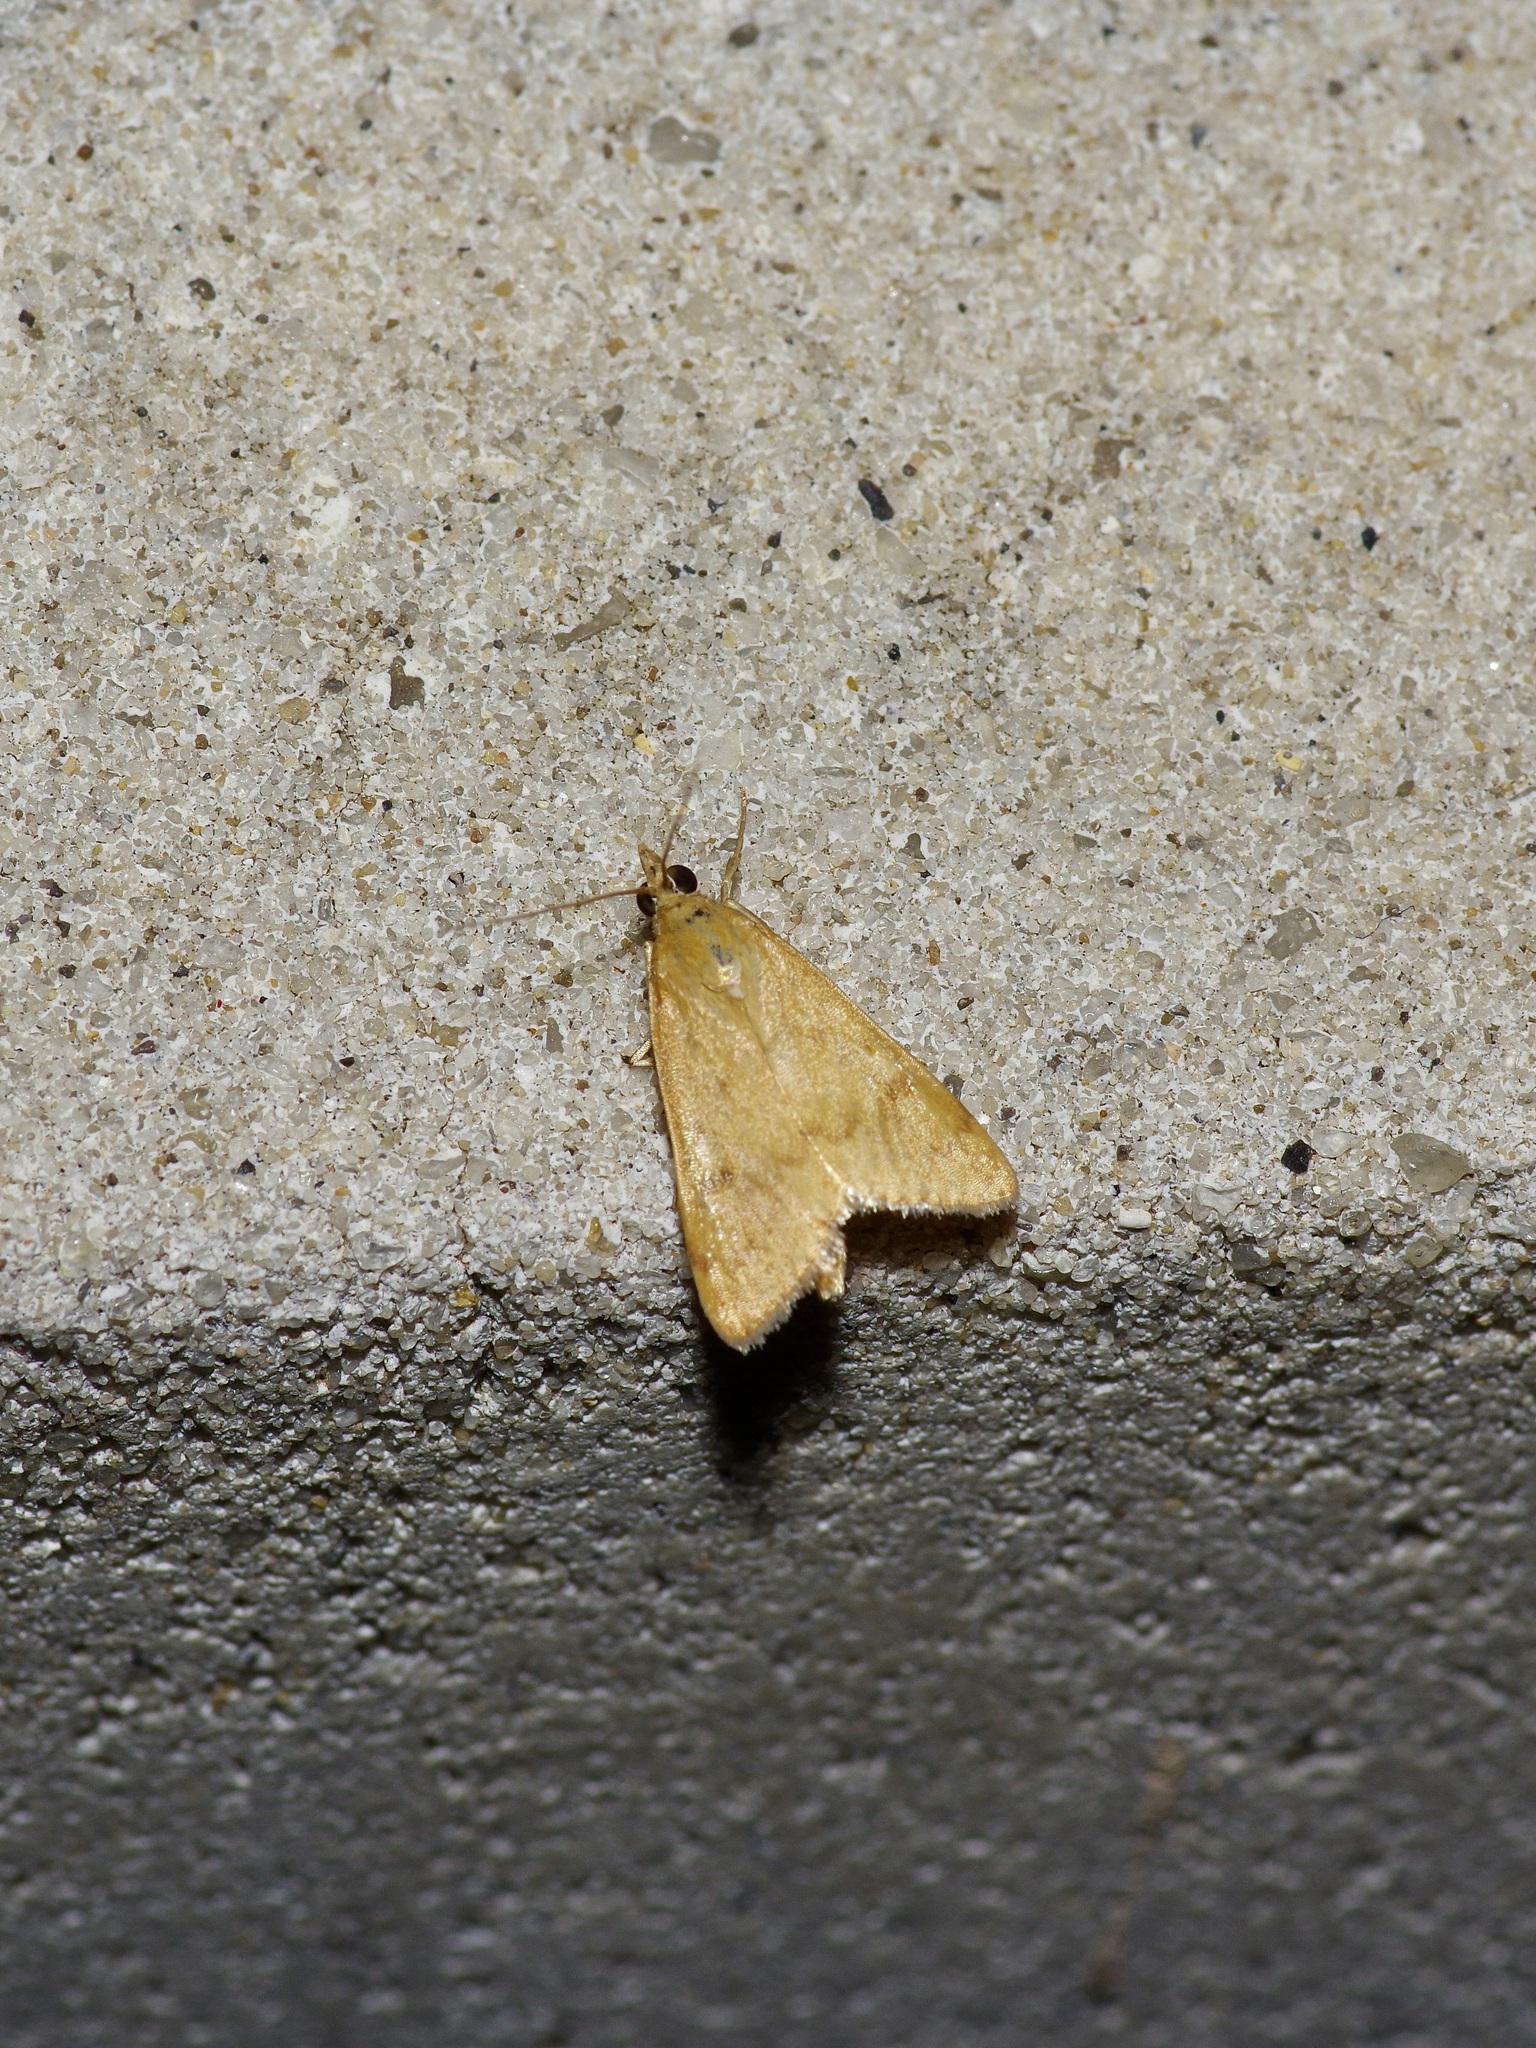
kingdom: Animalia
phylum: Arthropoda
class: Insecta
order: Lepidoptera
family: Crambidae
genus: Achyra
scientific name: Achyra rantalis
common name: Garden webworm
